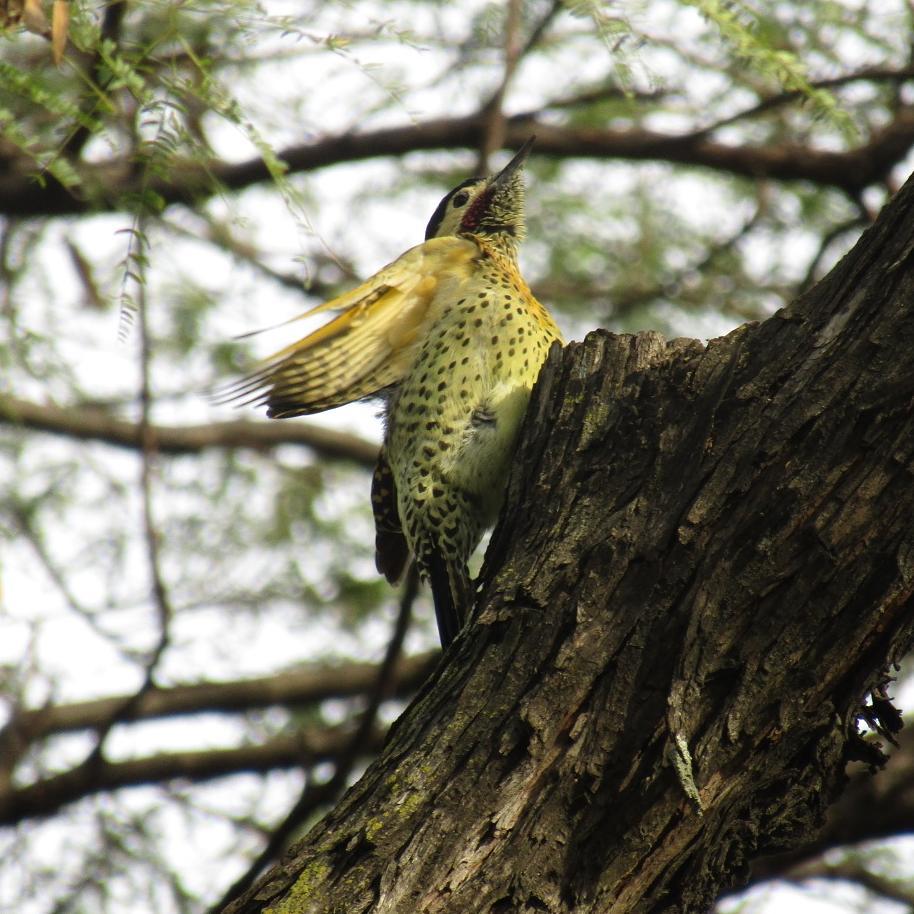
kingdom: Animalia
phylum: Chordata
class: Aves
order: Piciformes
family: Picidae
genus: Colaptes
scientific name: Colaptes melanochloros
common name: Green-barred woodpecker
